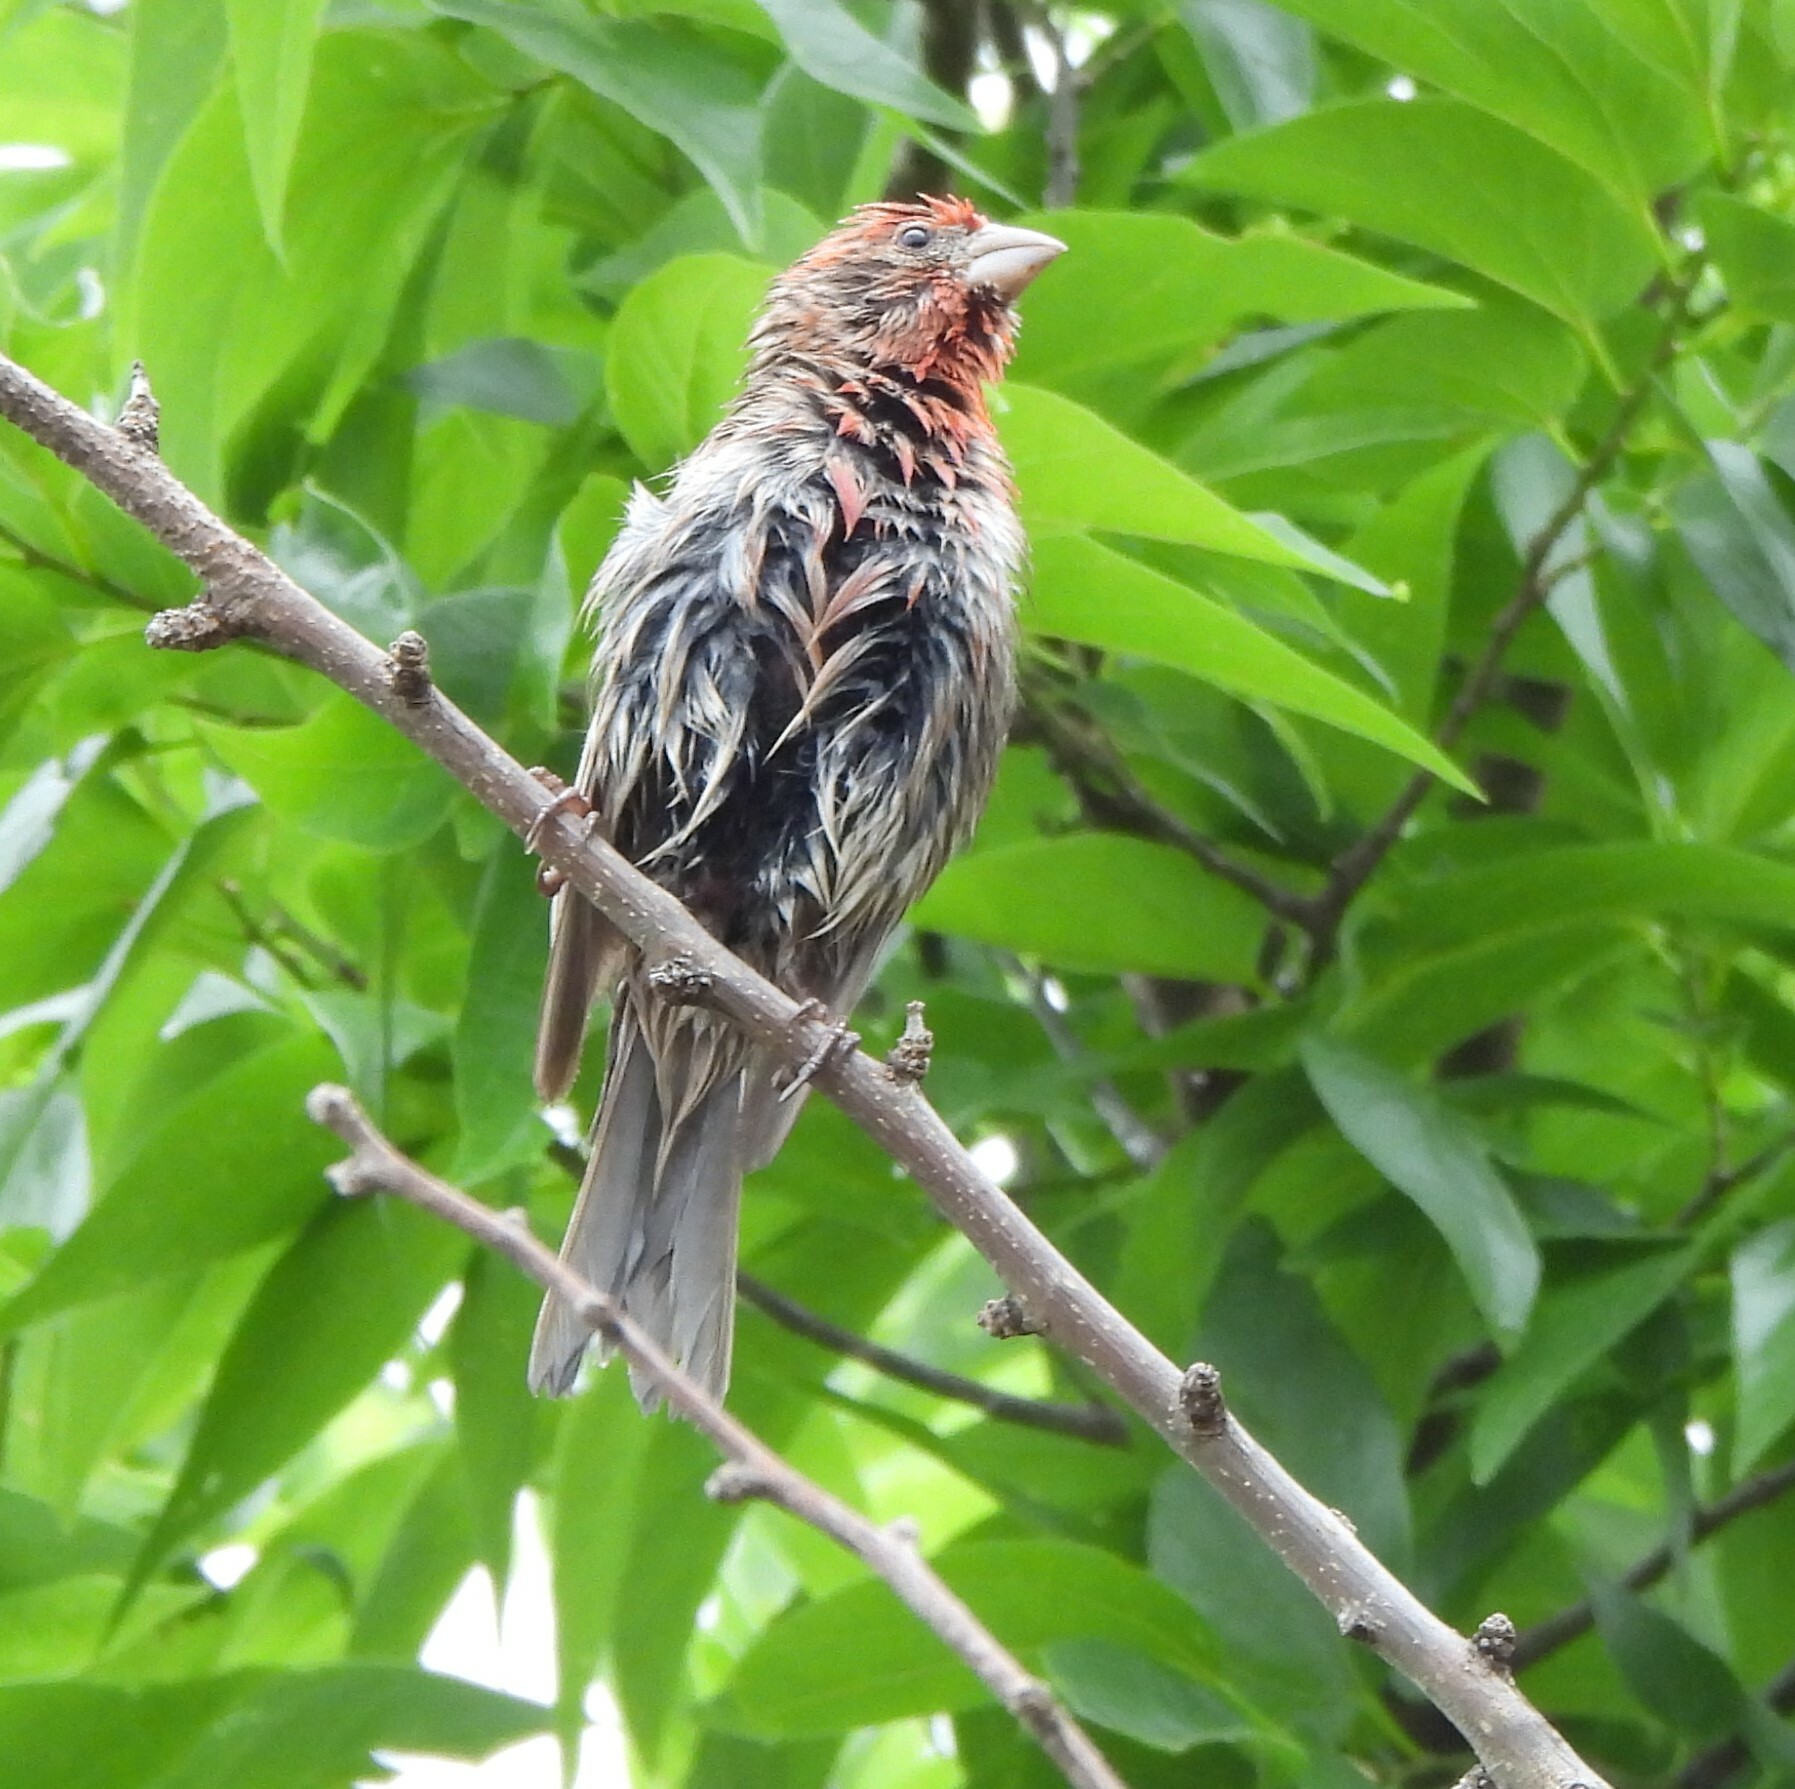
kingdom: Animalia
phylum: Chordata
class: Aves
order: Passeriformes
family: Fringillidae
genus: Haemorhous
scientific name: Haemorhous mexicanus
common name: House finch
